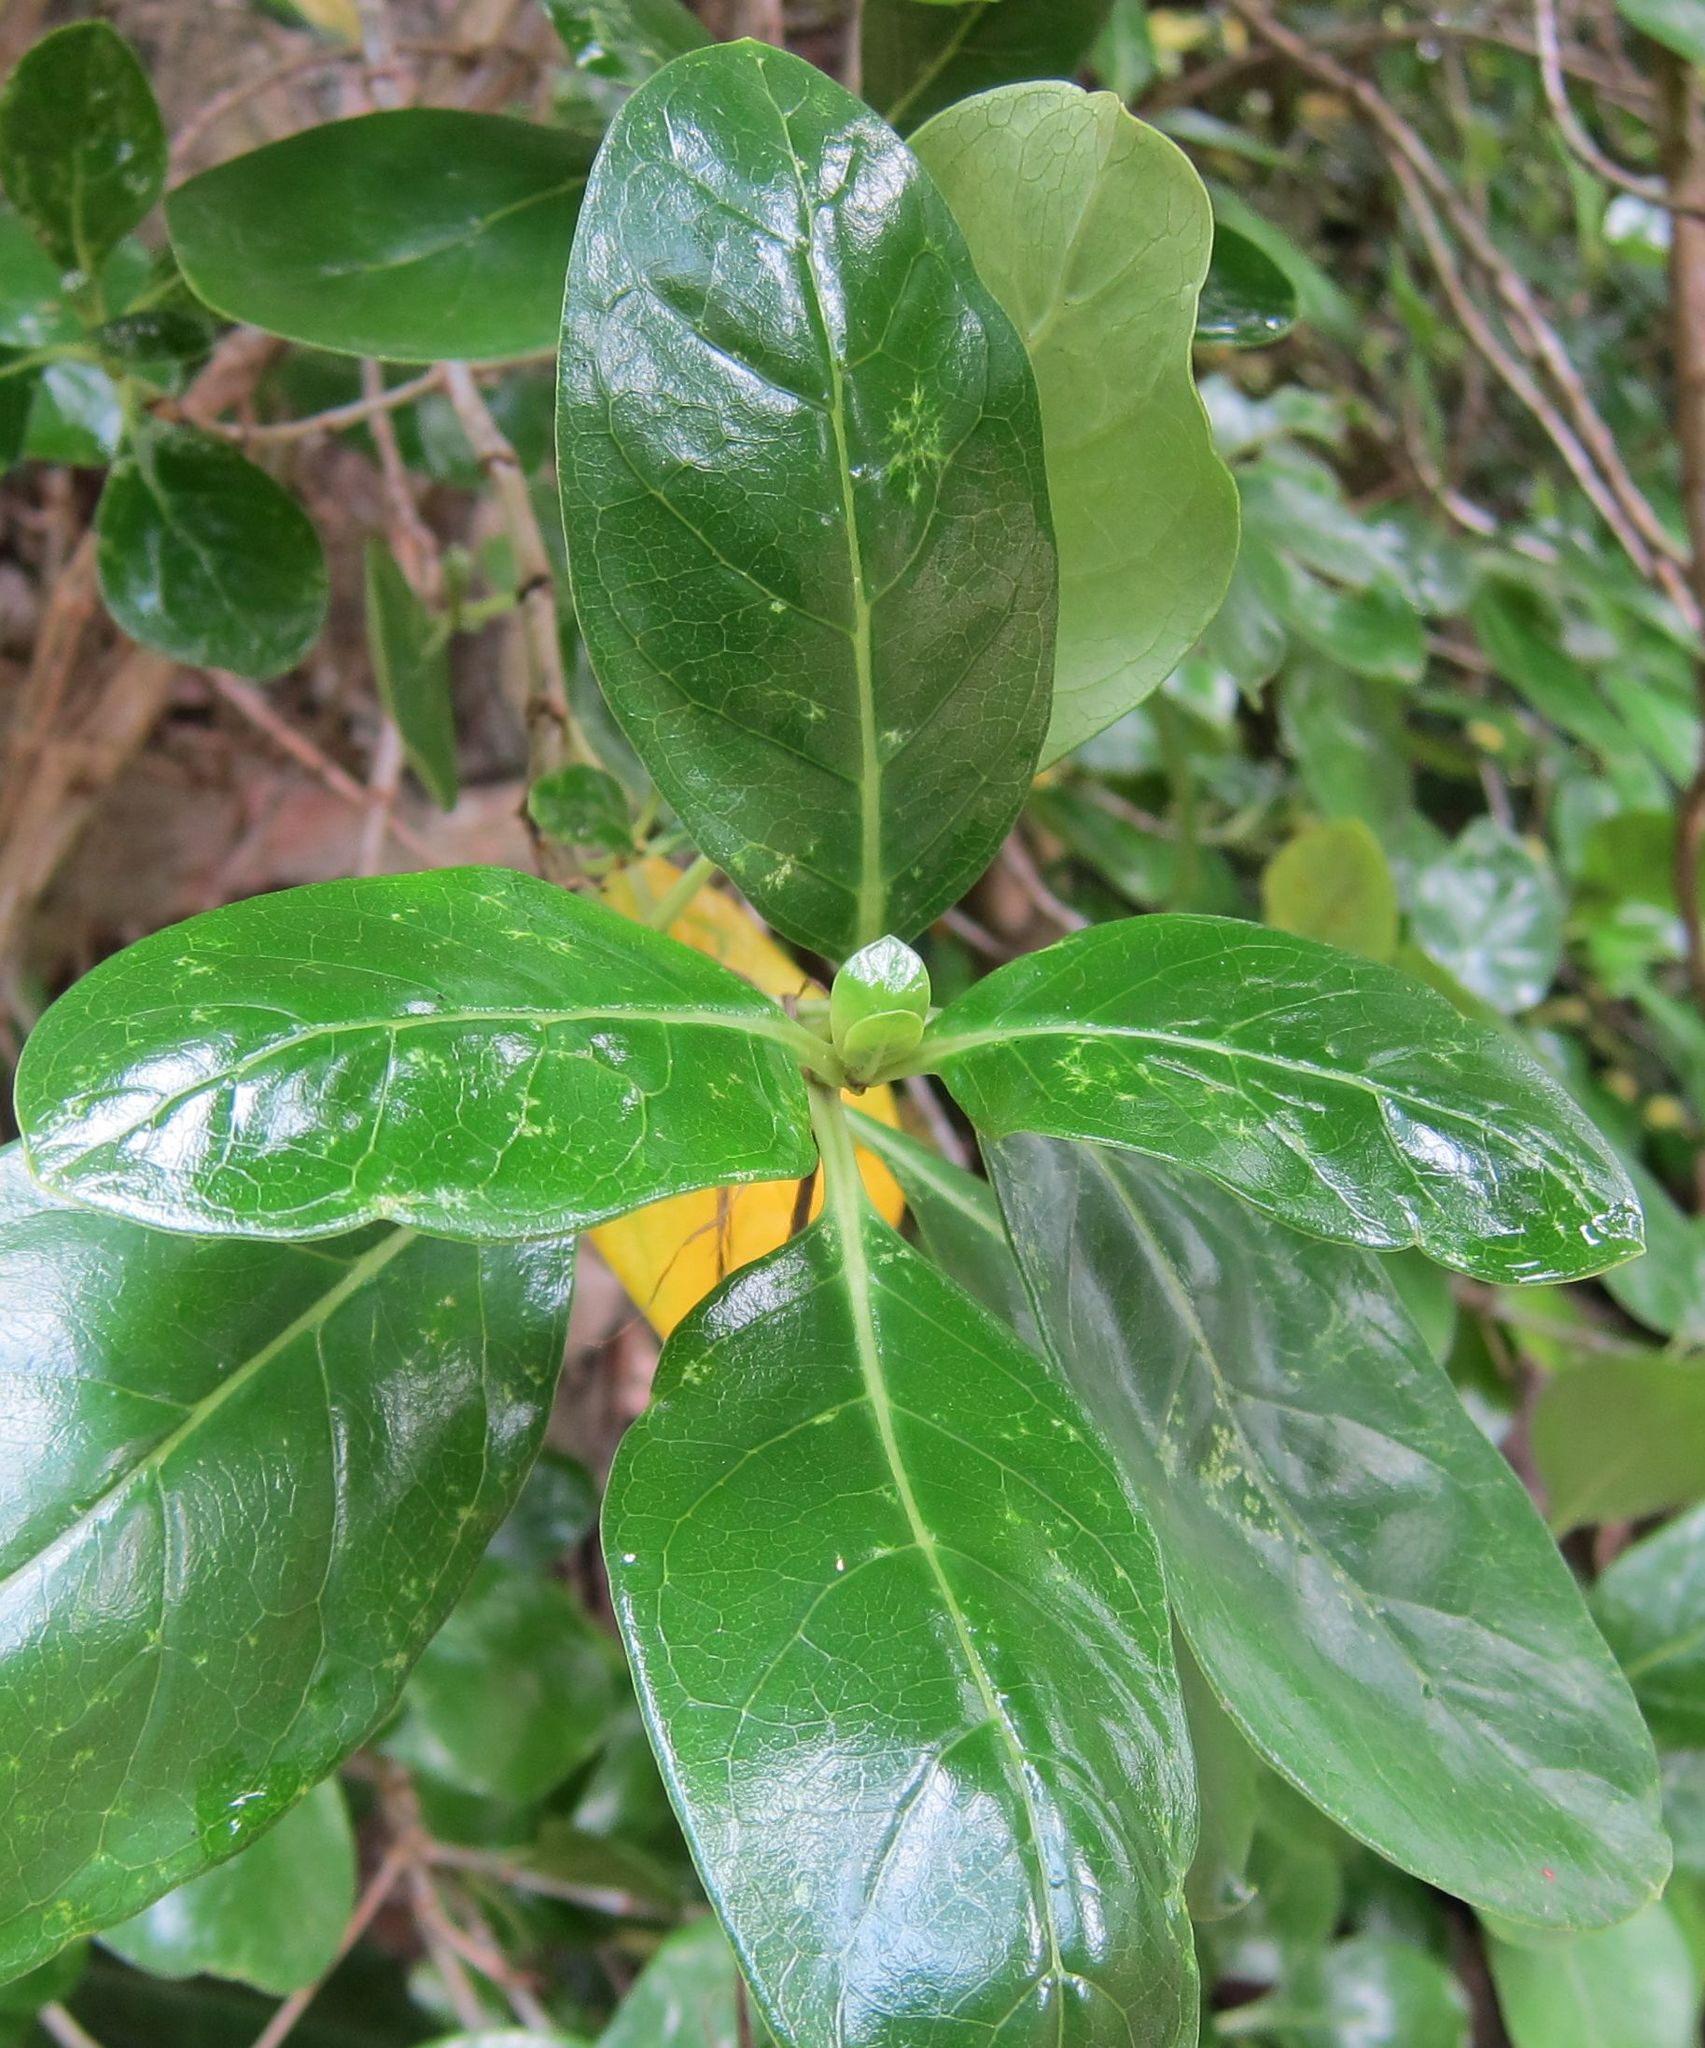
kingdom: Plantae
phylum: Tracheophyta
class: Magnoliopsida
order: Gentianales
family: Rubiaceae
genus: Coprosma
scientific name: Coprosma repens
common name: Tree bedstraw
